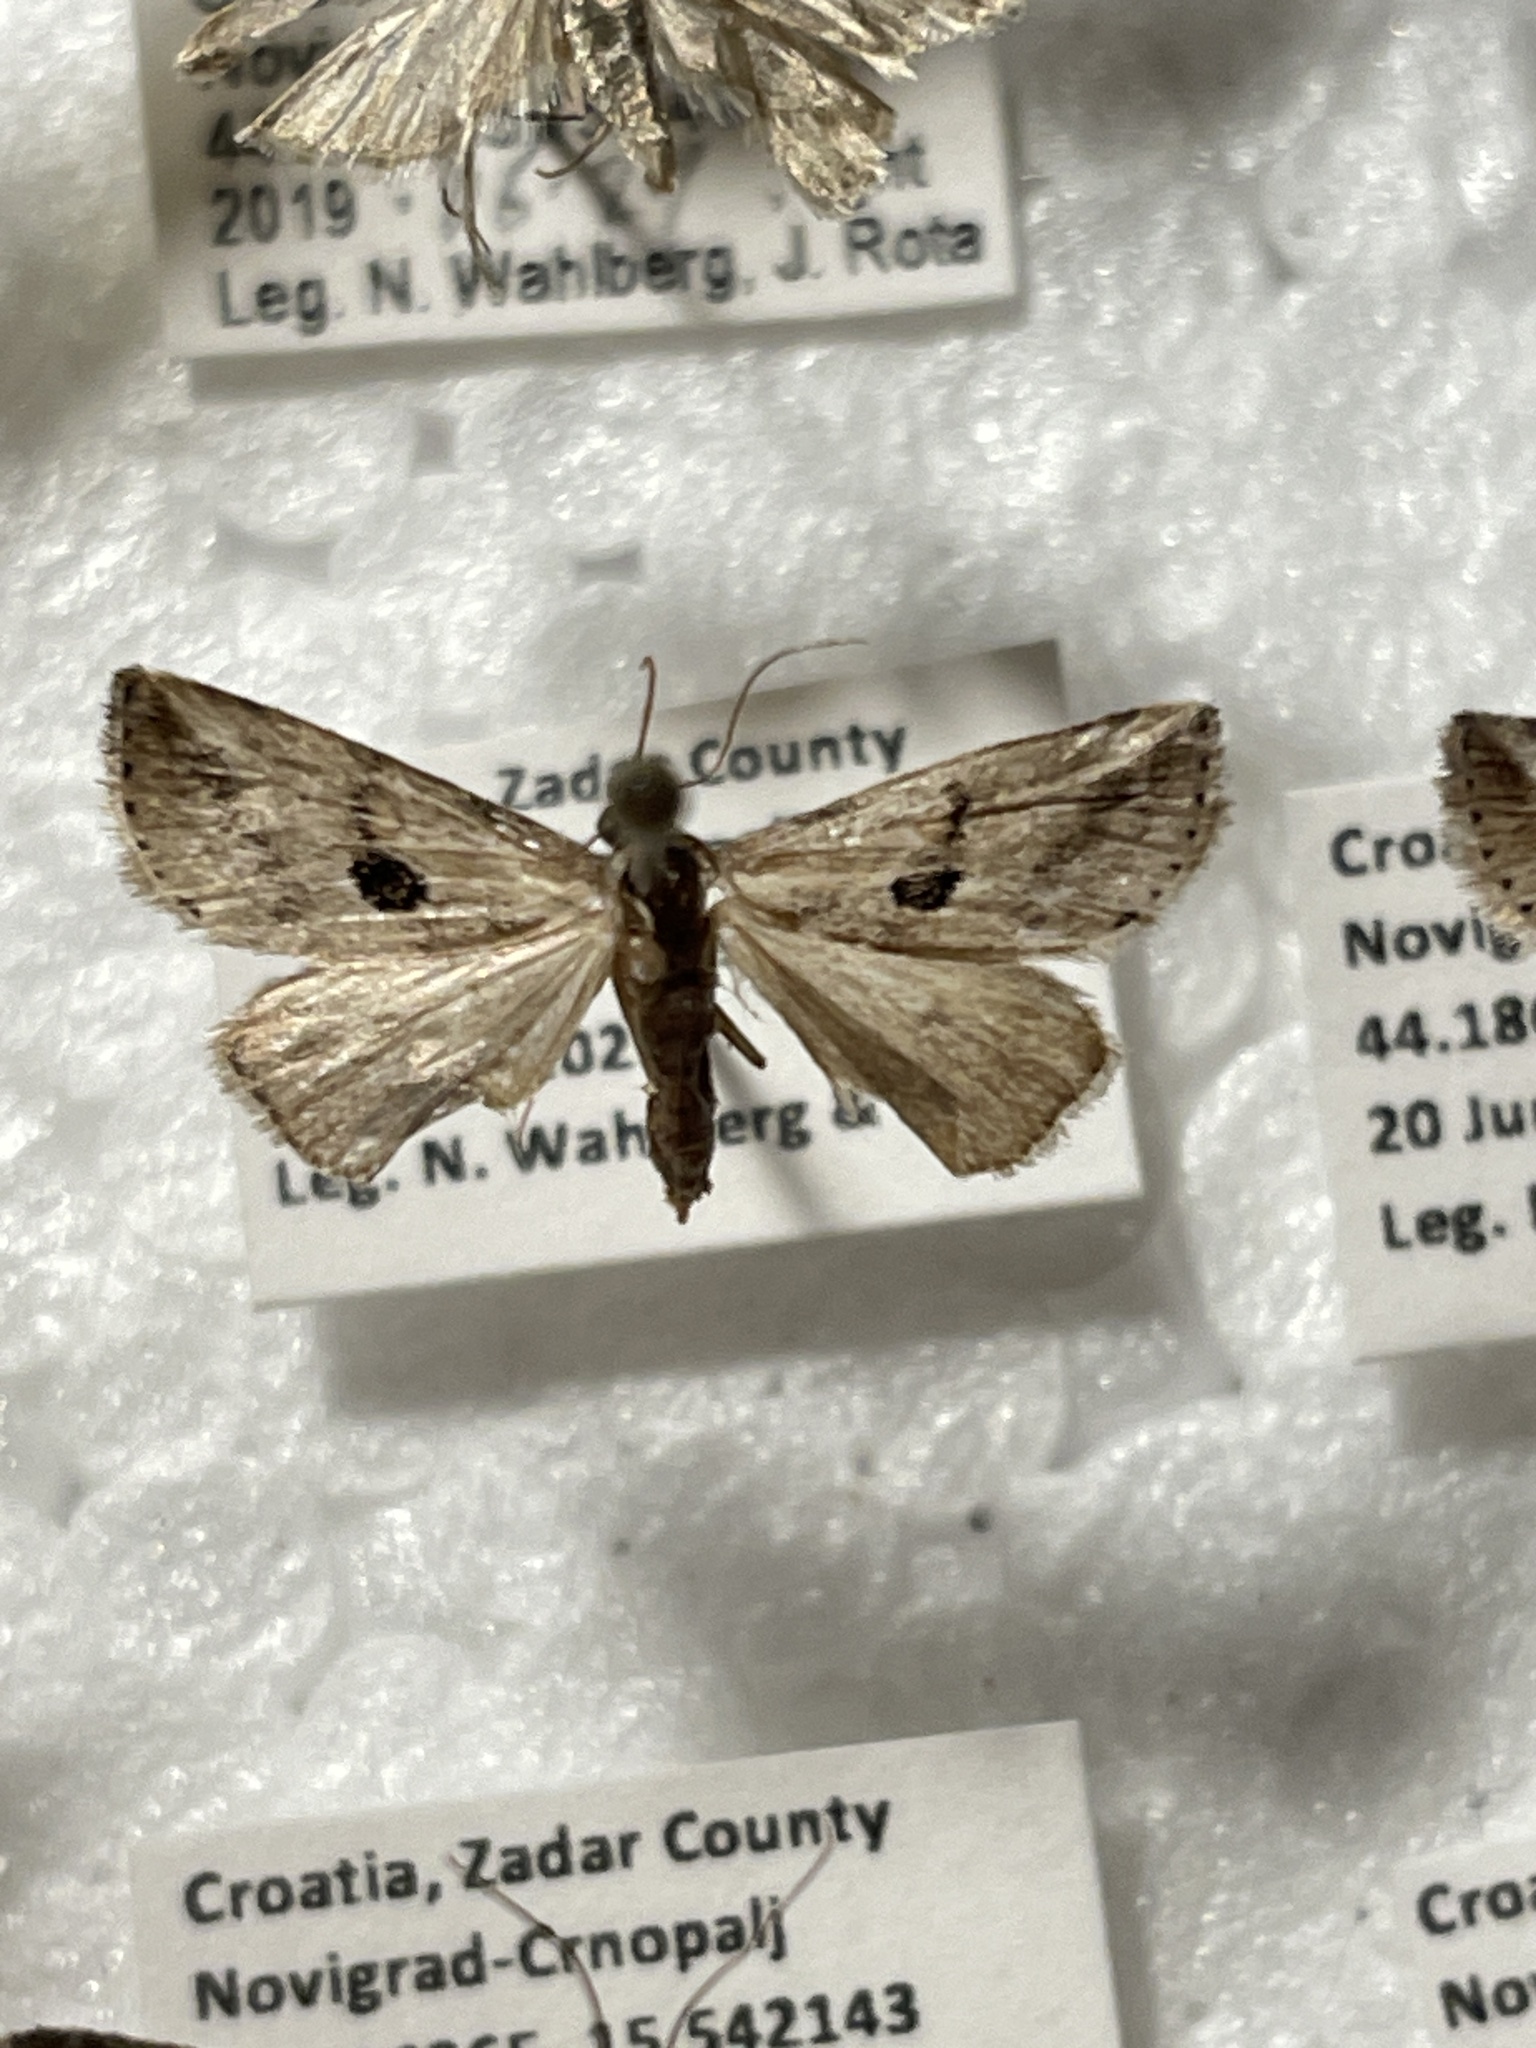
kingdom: Animalia
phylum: Arthropoda
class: Insecta
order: Lepidoptera
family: Erebidae
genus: Zebeeba
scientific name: Zebeeba falsalis
